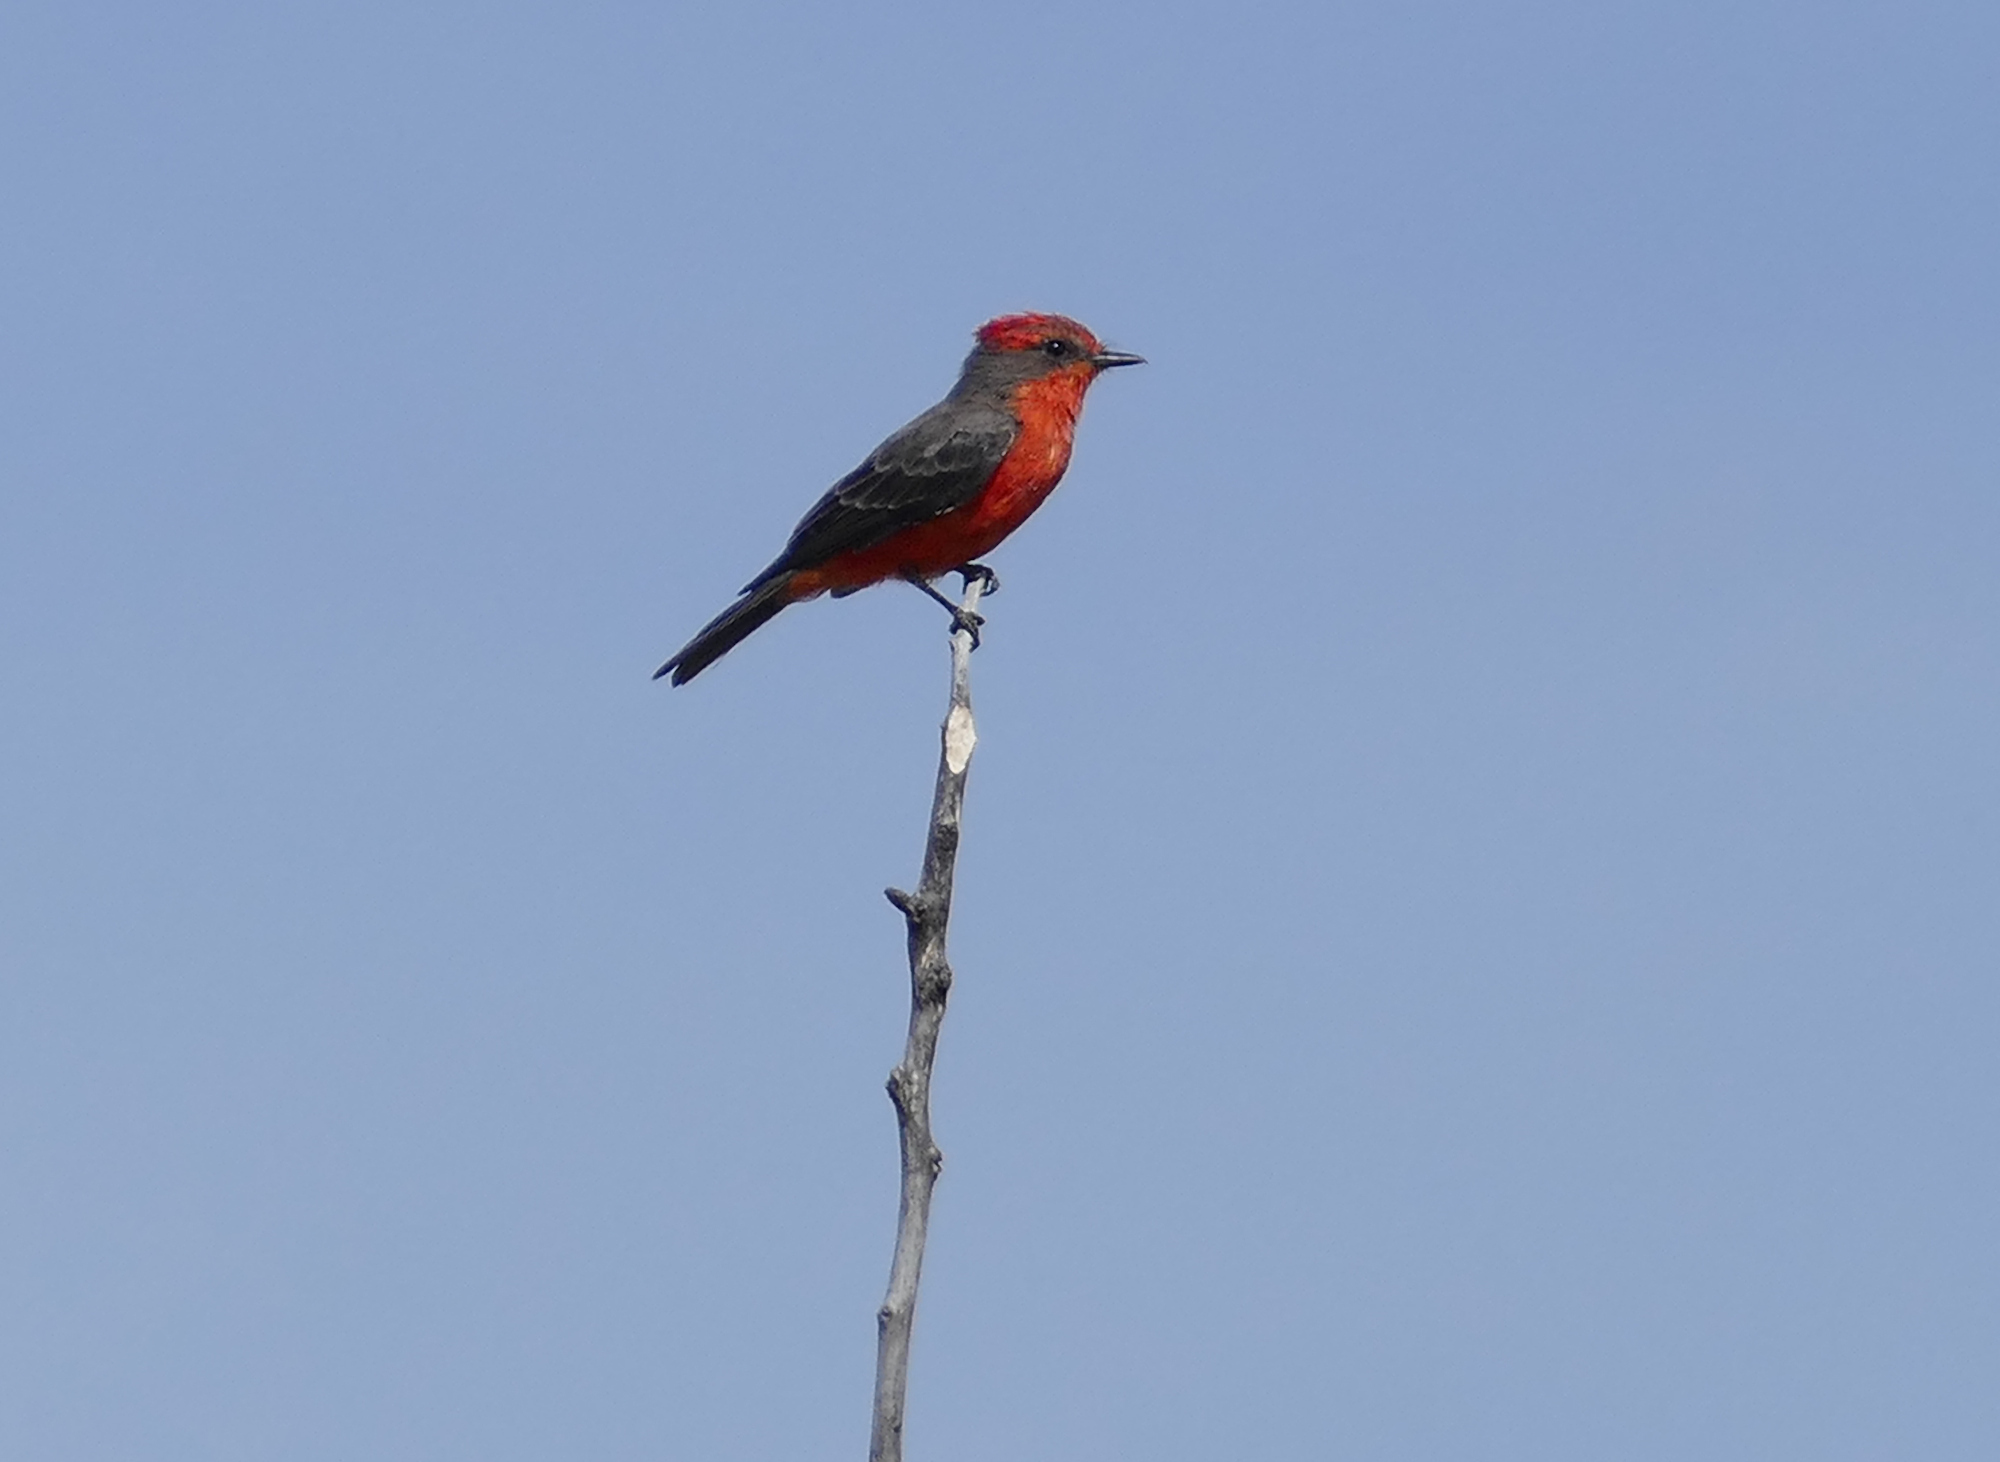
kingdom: Animalia
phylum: Chordata
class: Aves
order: Passeriformes
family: Tyrannidae
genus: Pyrocephalus
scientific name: Pyrocephalus rubinus
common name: Vermilion flycatcher
